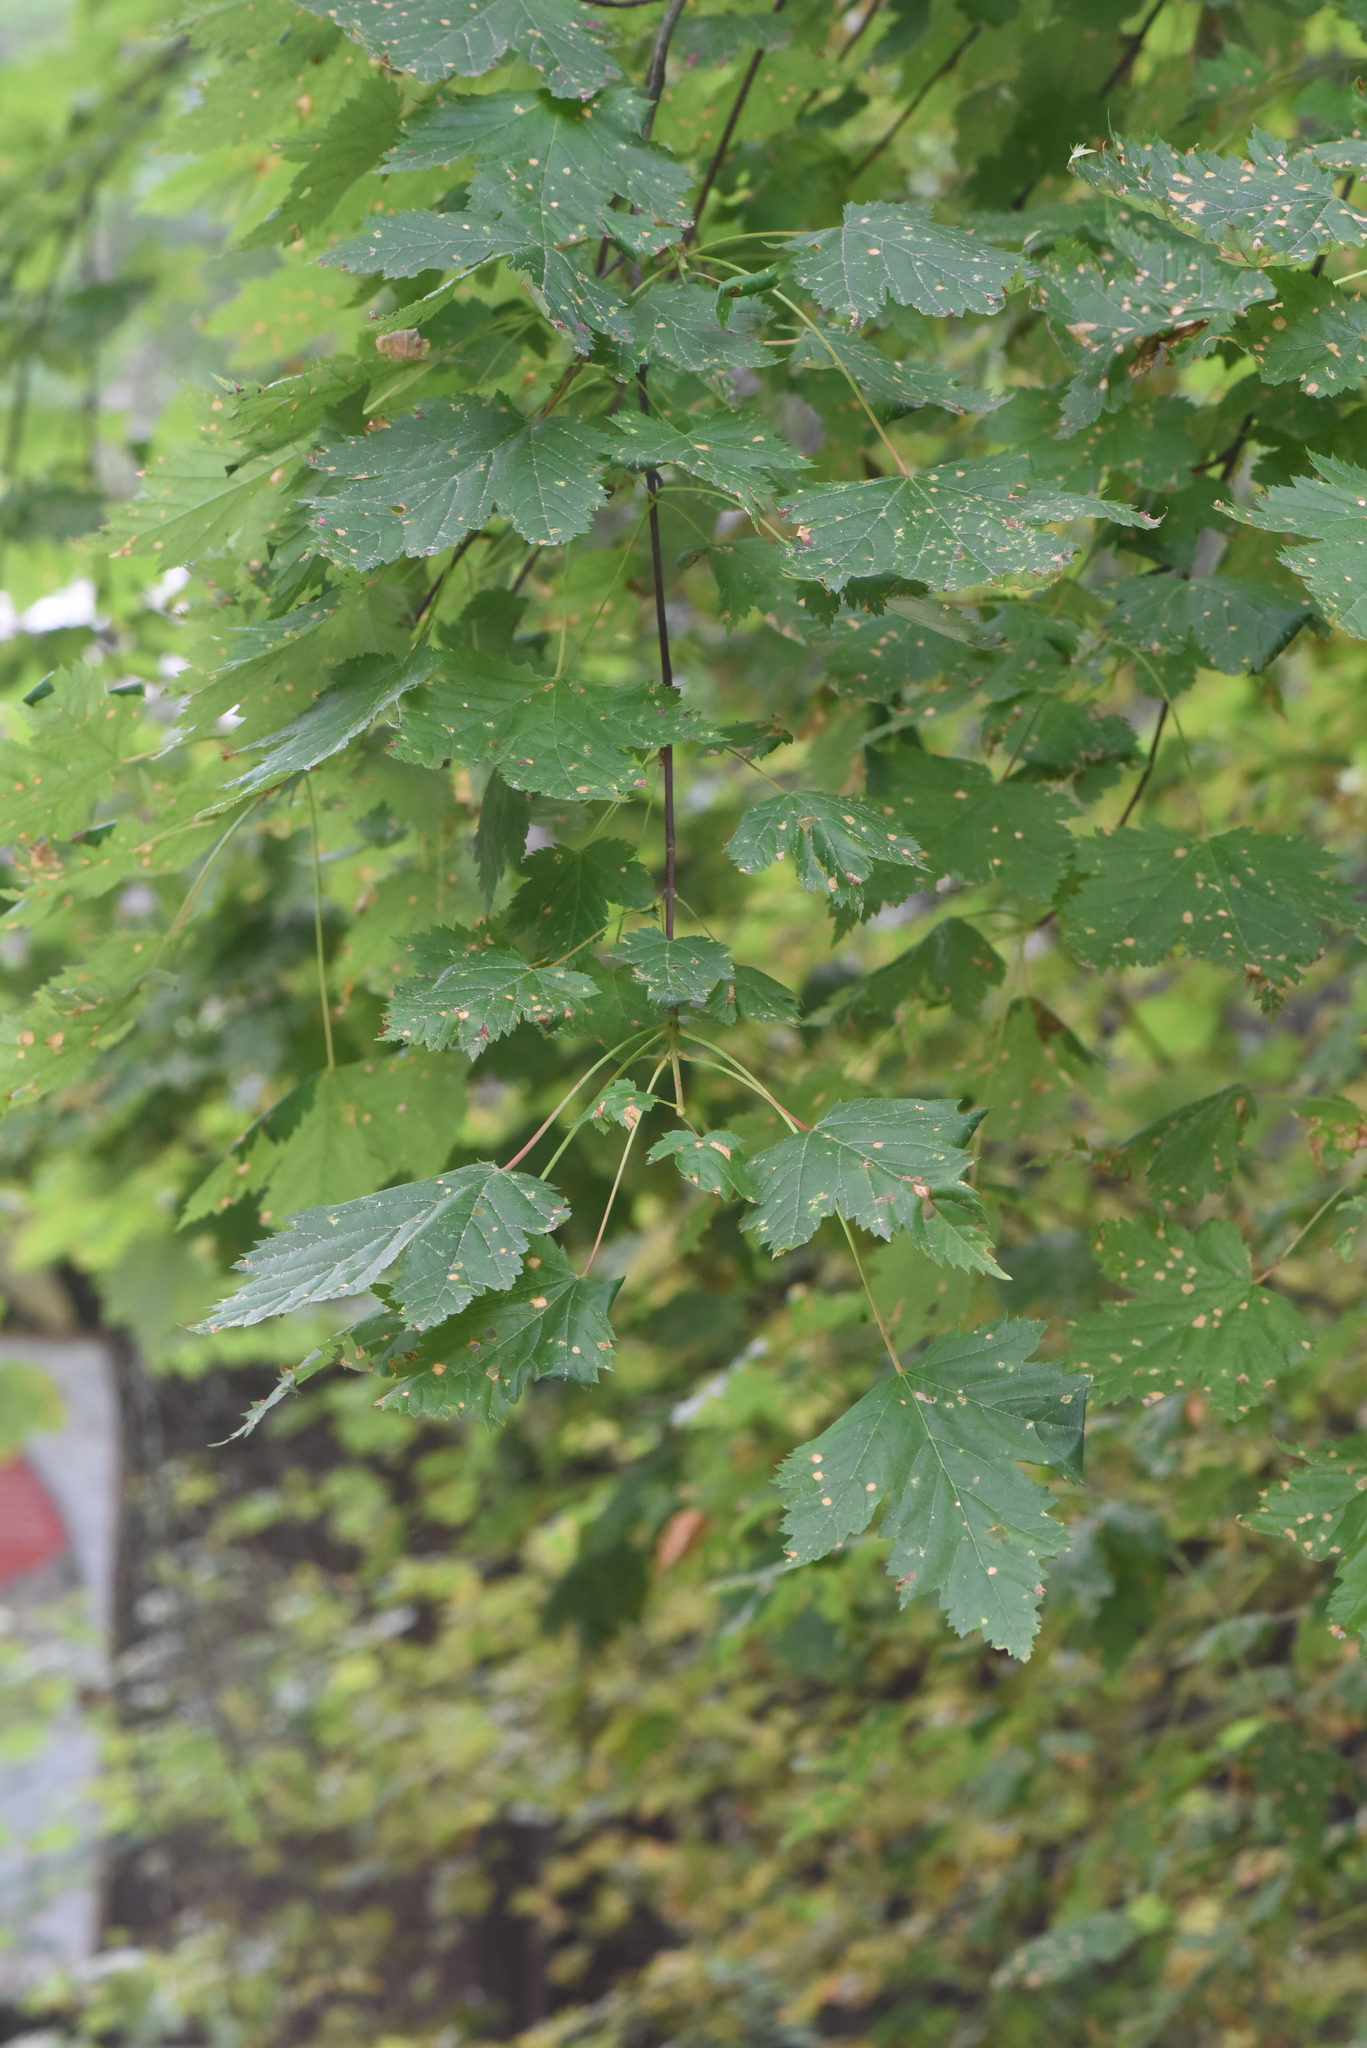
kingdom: Plantae
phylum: Tracheophyta
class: Magnoliopsida
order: Sapindales
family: Sapindaceae
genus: Acer
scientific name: Acer glabrum
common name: Rocky mountain maple
